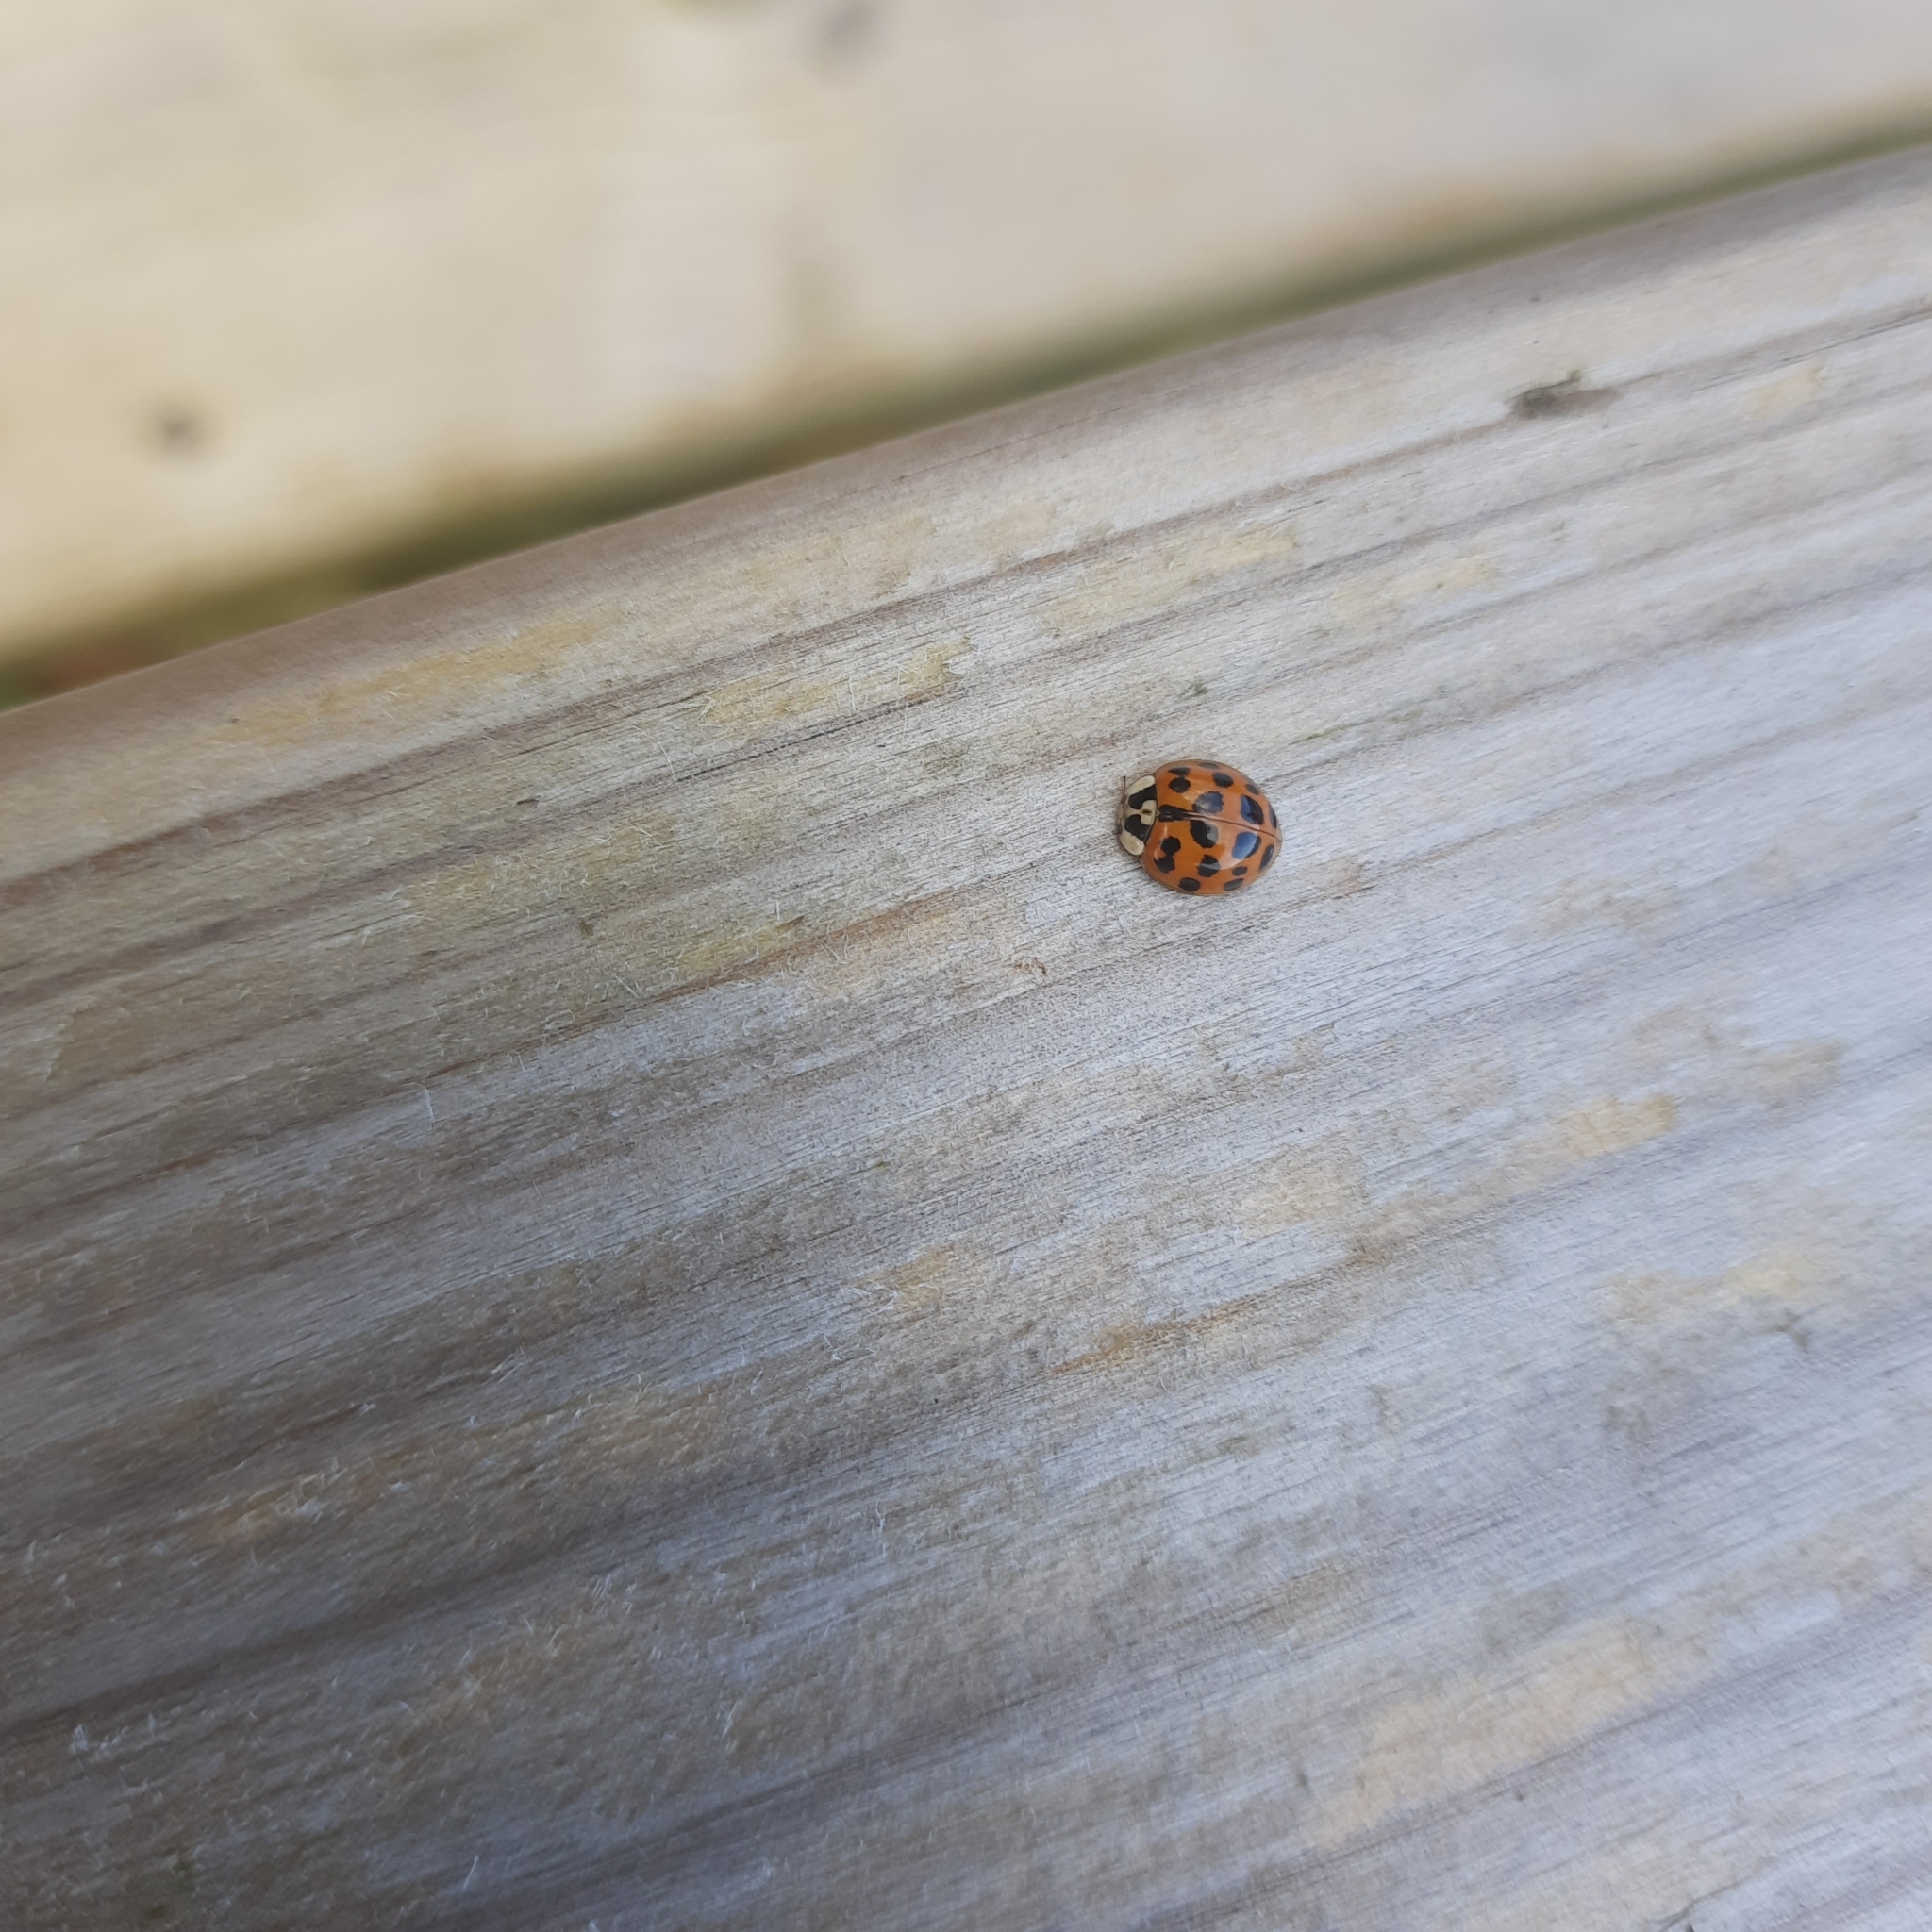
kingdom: Animalia
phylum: Arthropoda
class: Insecta
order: Coleoptera
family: Coccinellidae
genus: Harmonia
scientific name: Harmonia axyridis
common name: Harlequin ladybird
